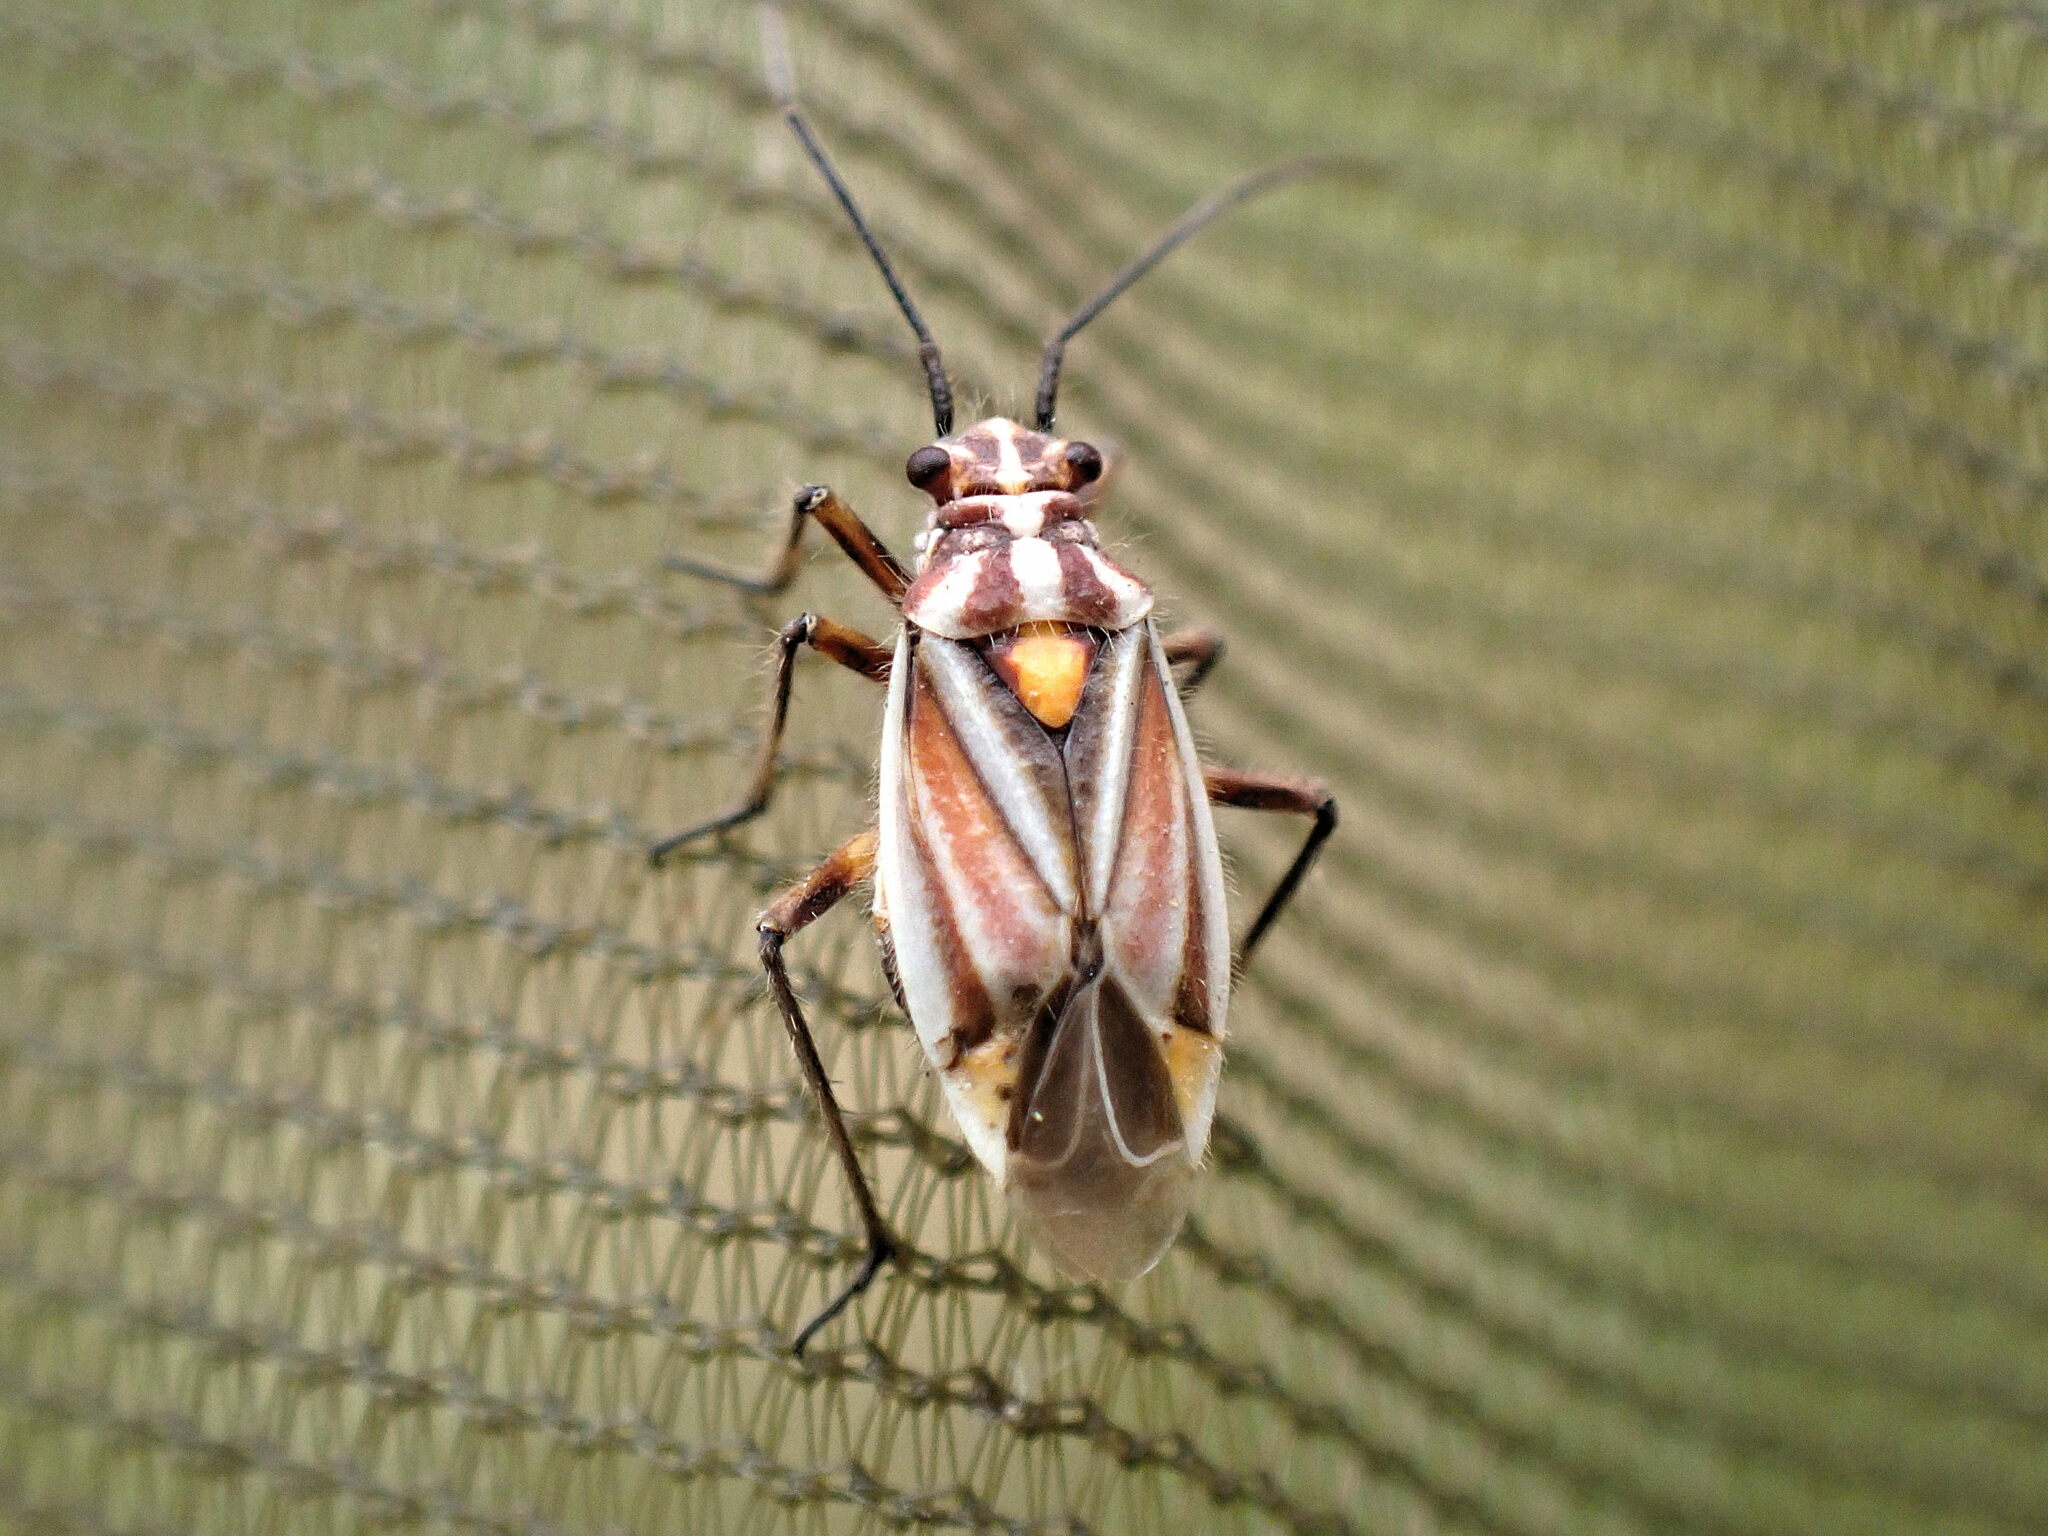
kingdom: Animalia
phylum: Arthropoda
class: Insecta
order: Hemiptera
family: Miridae
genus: Horistus
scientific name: Horistus orientalis
